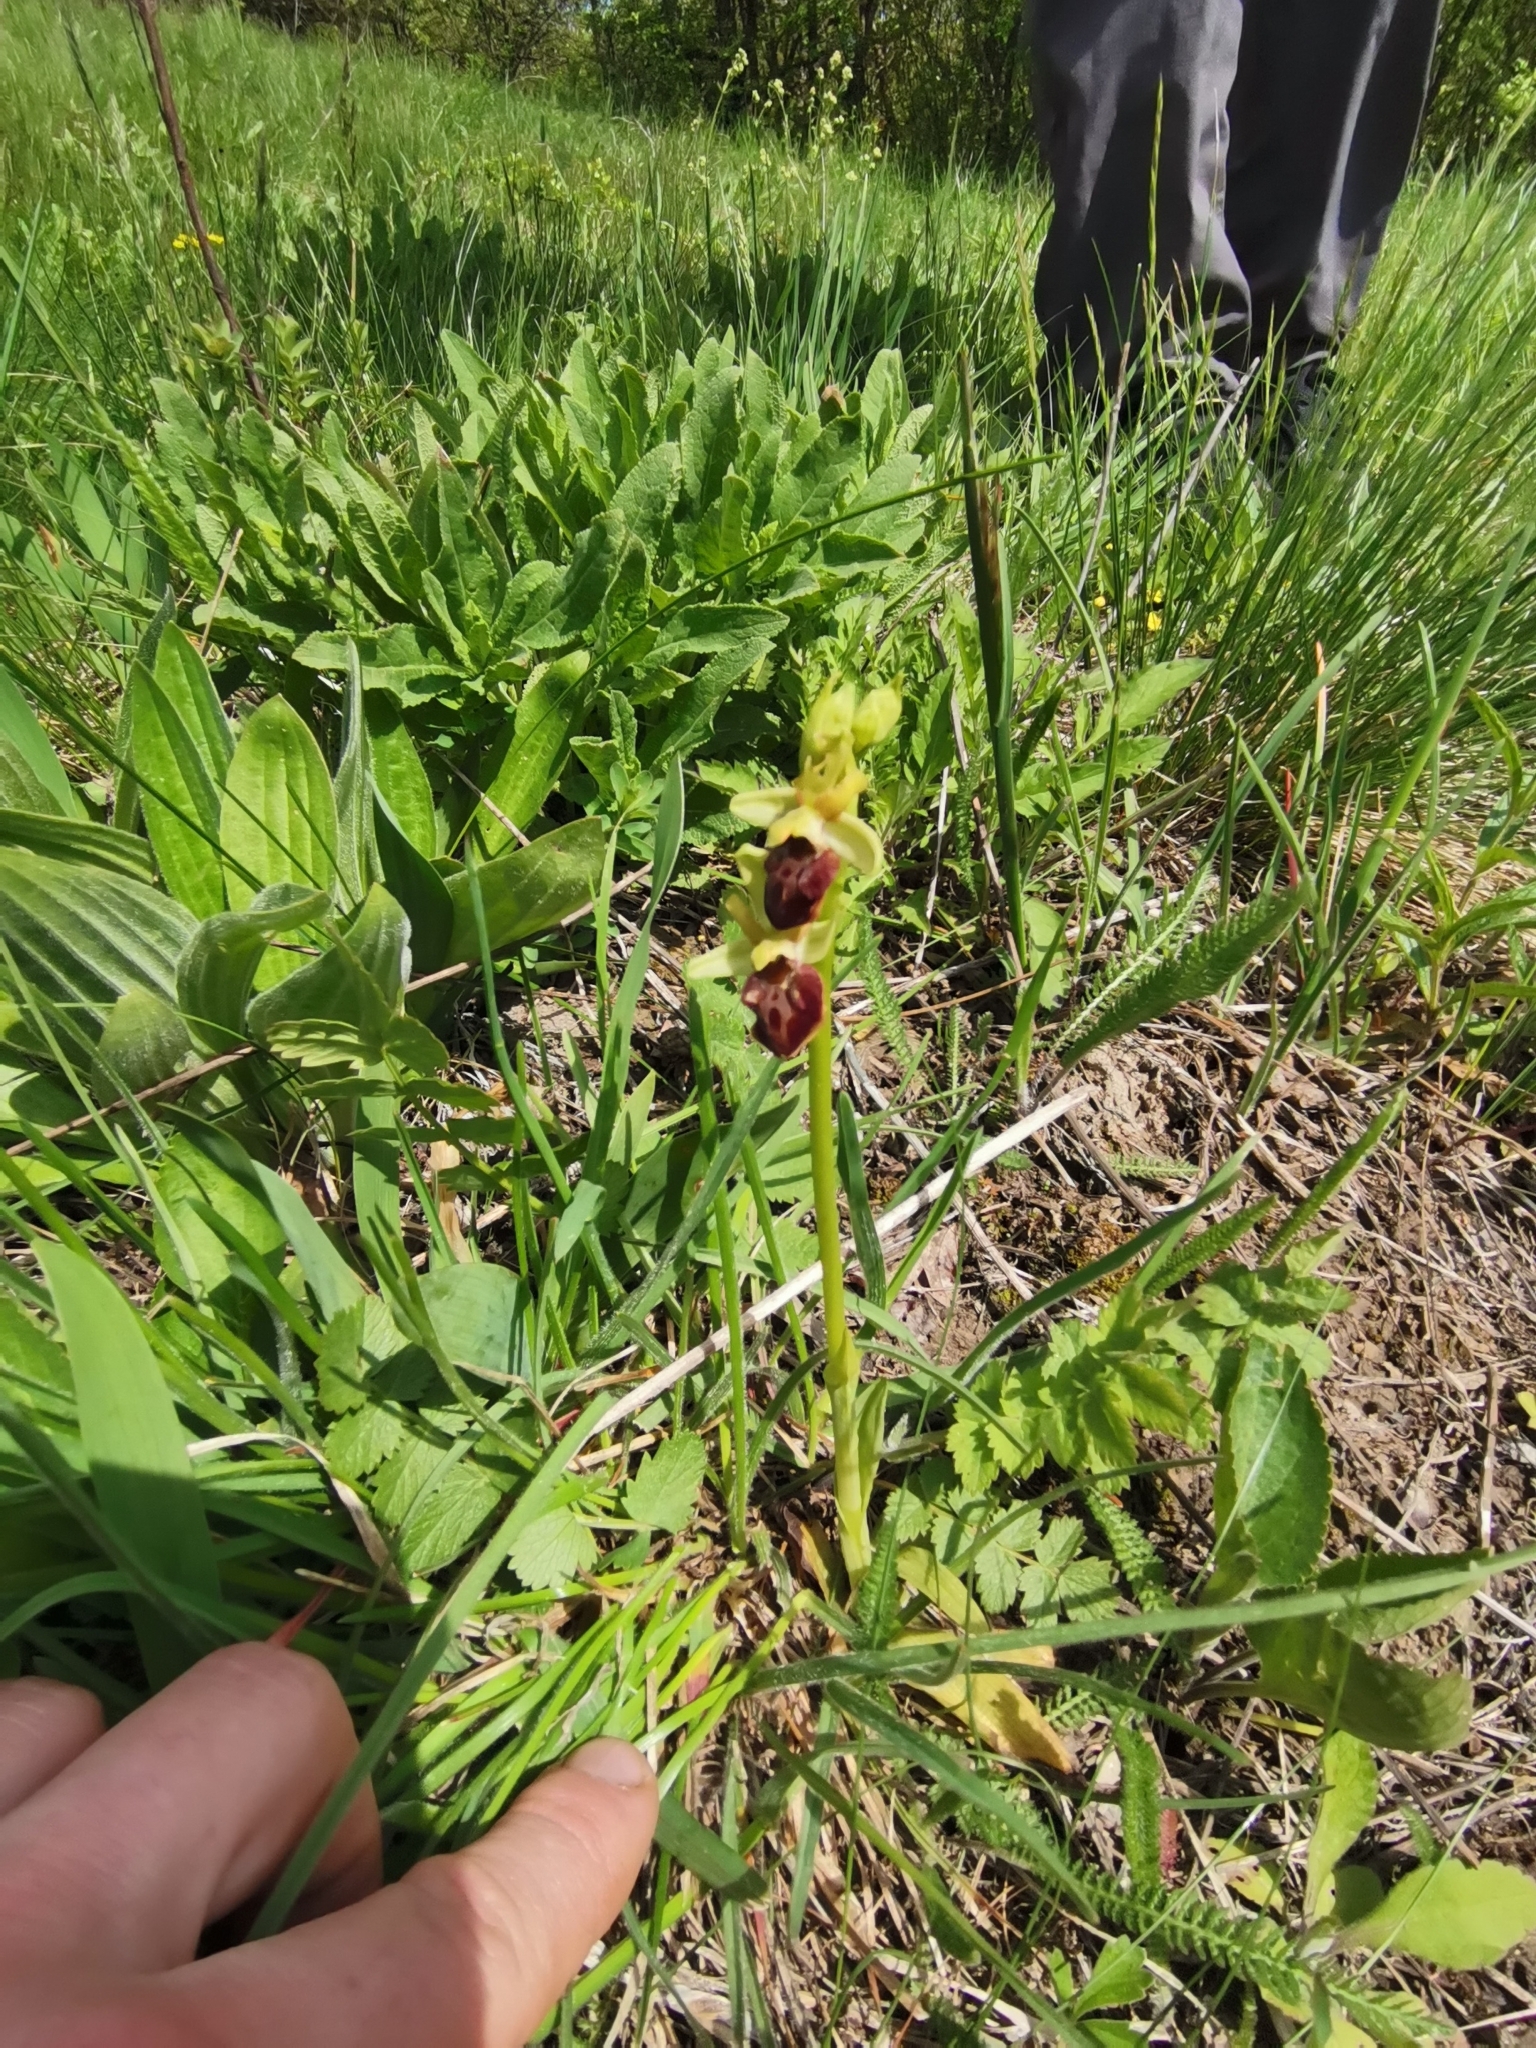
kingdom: Plantae
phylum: Tracheophyta
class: Liliopsida
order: Asparagales
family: Orchidaceae
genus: Ophrys
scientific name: Ophrys sphegodes
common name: Early spider-orchid
